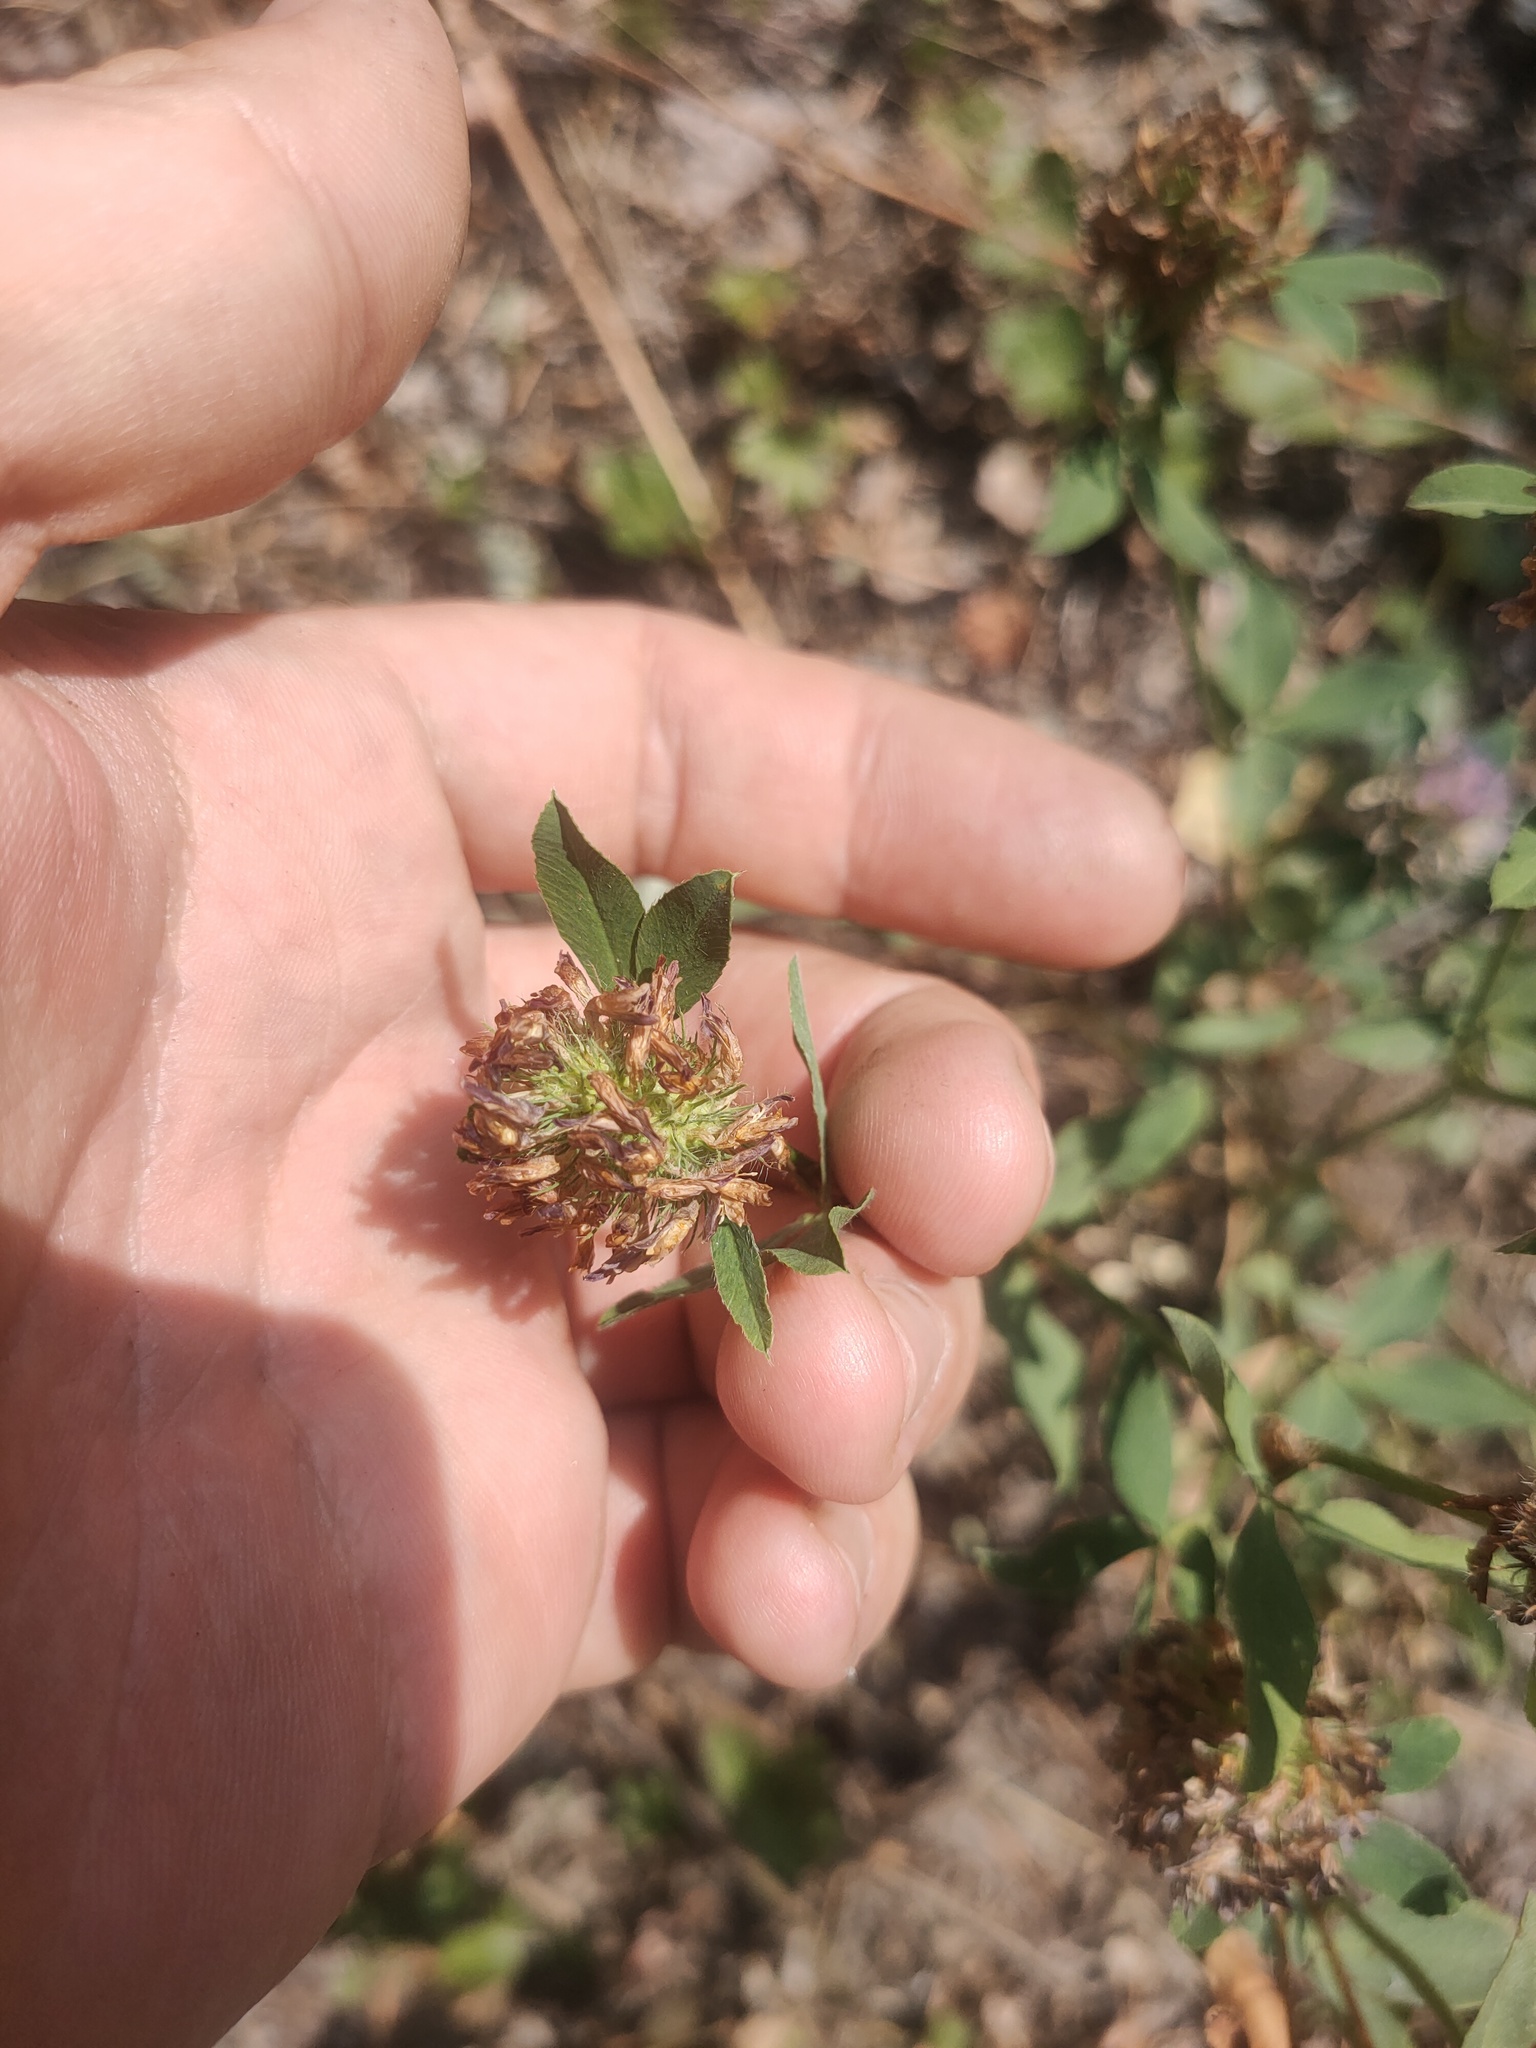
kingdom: Plantae
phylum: Tracheophyta
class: Magnoliopsida
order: Fabales
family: Fabaceae
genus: Trifolium
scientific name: Trifolium medium
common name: Zigzag clover
